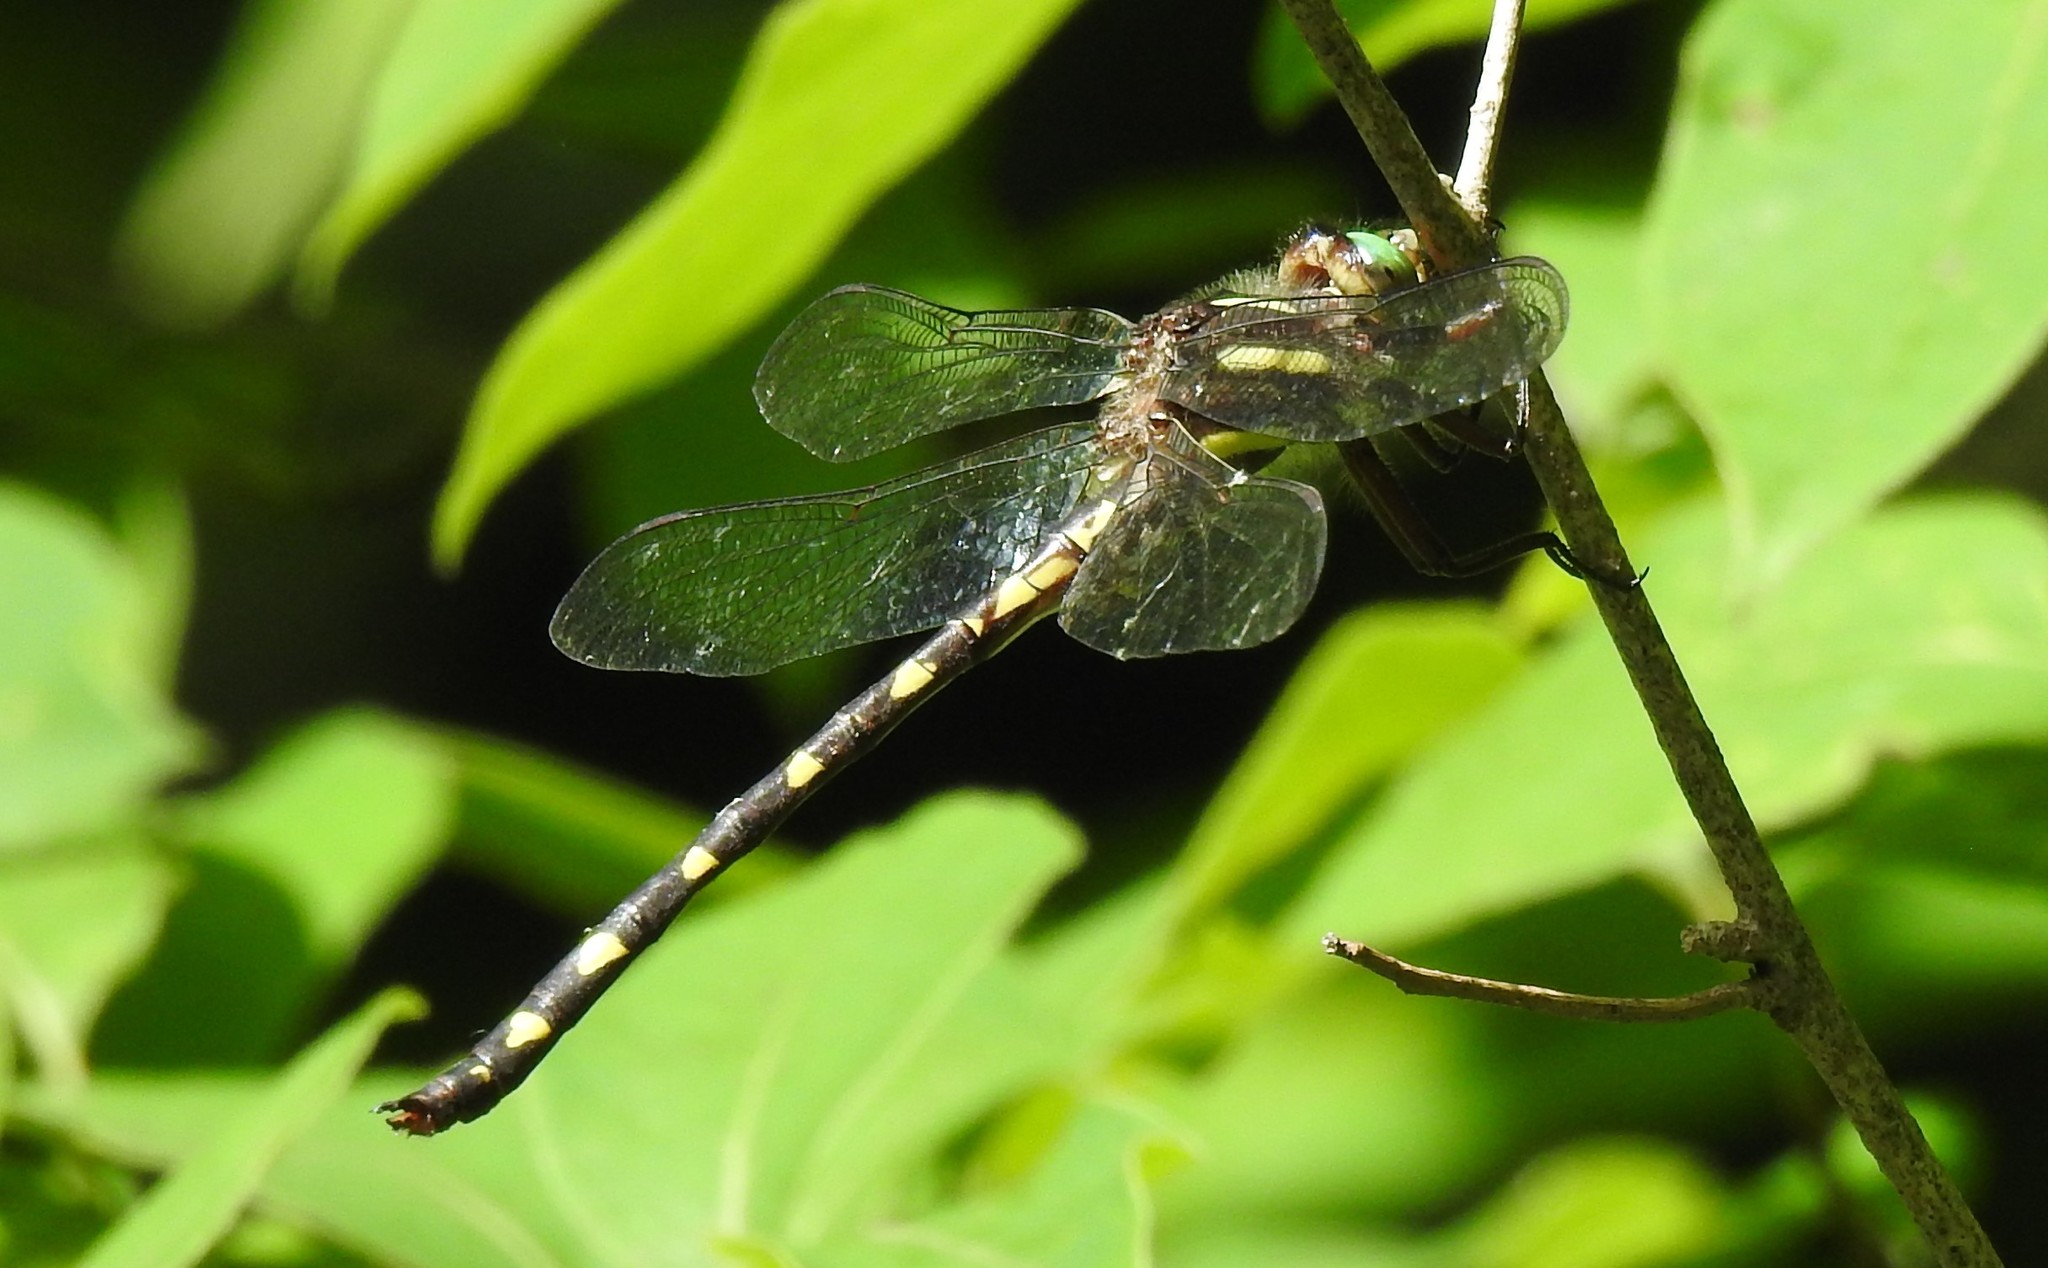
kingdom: Animalia
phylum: Arthropoda
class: Insecta
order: Odonata
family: Cordulegastridae
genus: Cordulegaster
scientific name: Cordulegaster bilineata
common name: Brown spiketail
